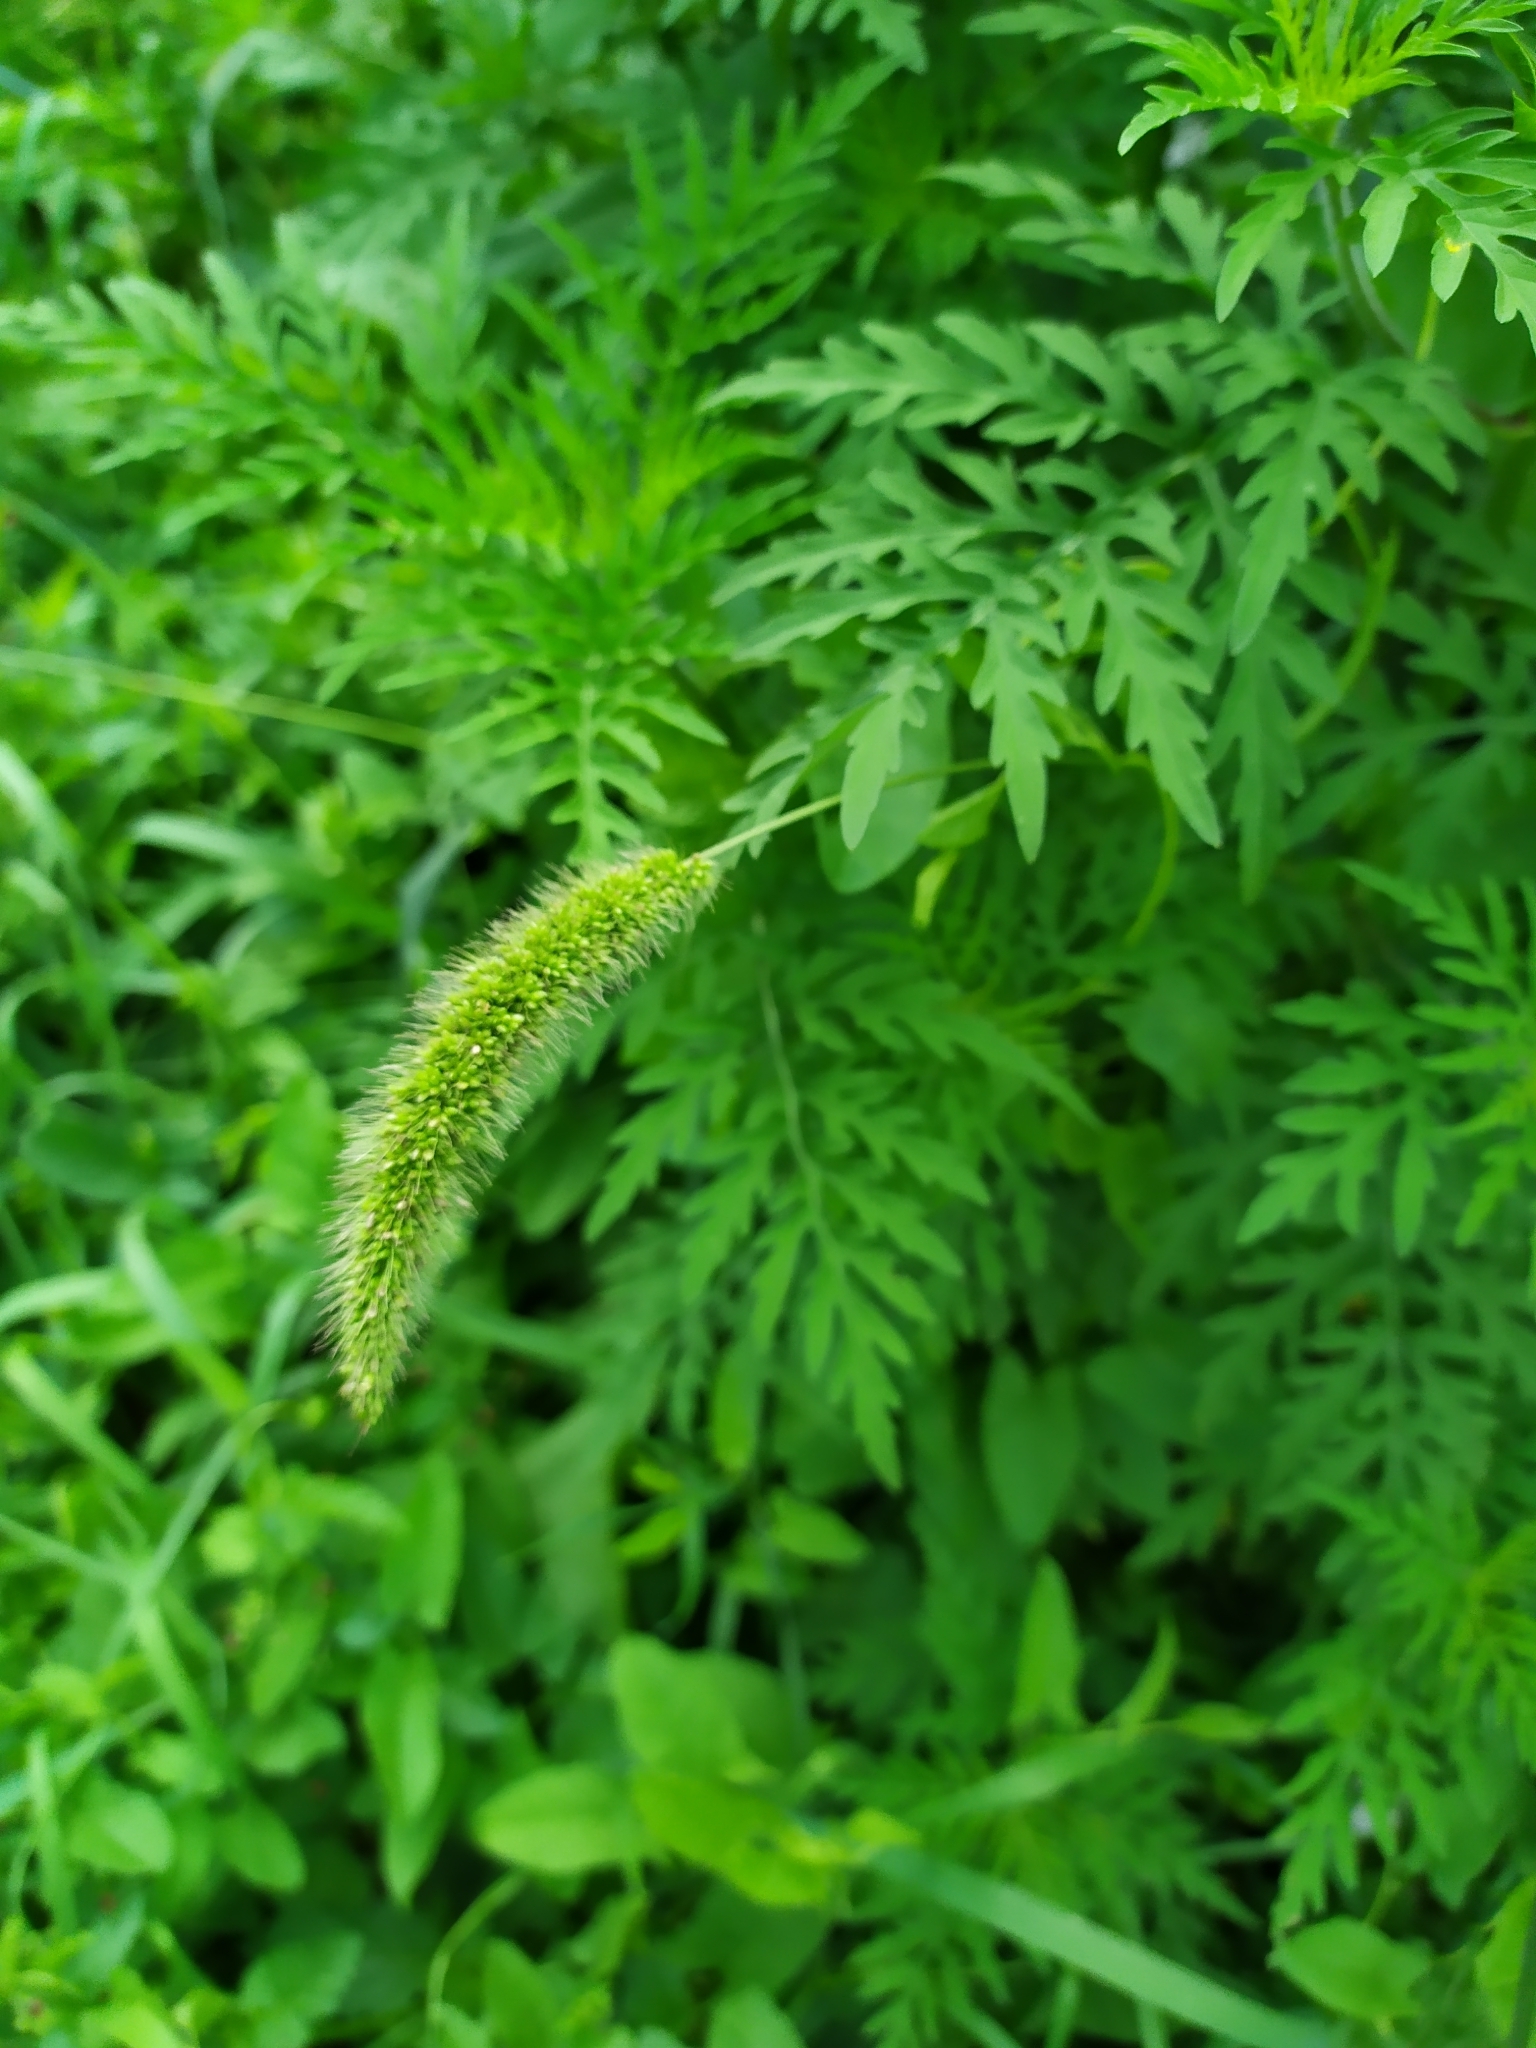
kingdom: Plantae
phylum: Tracheophyta
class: Liliopsida
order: Poales
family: Poaceae
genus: Setaria
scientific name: Setaria viridis
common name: Green bristlegrass
